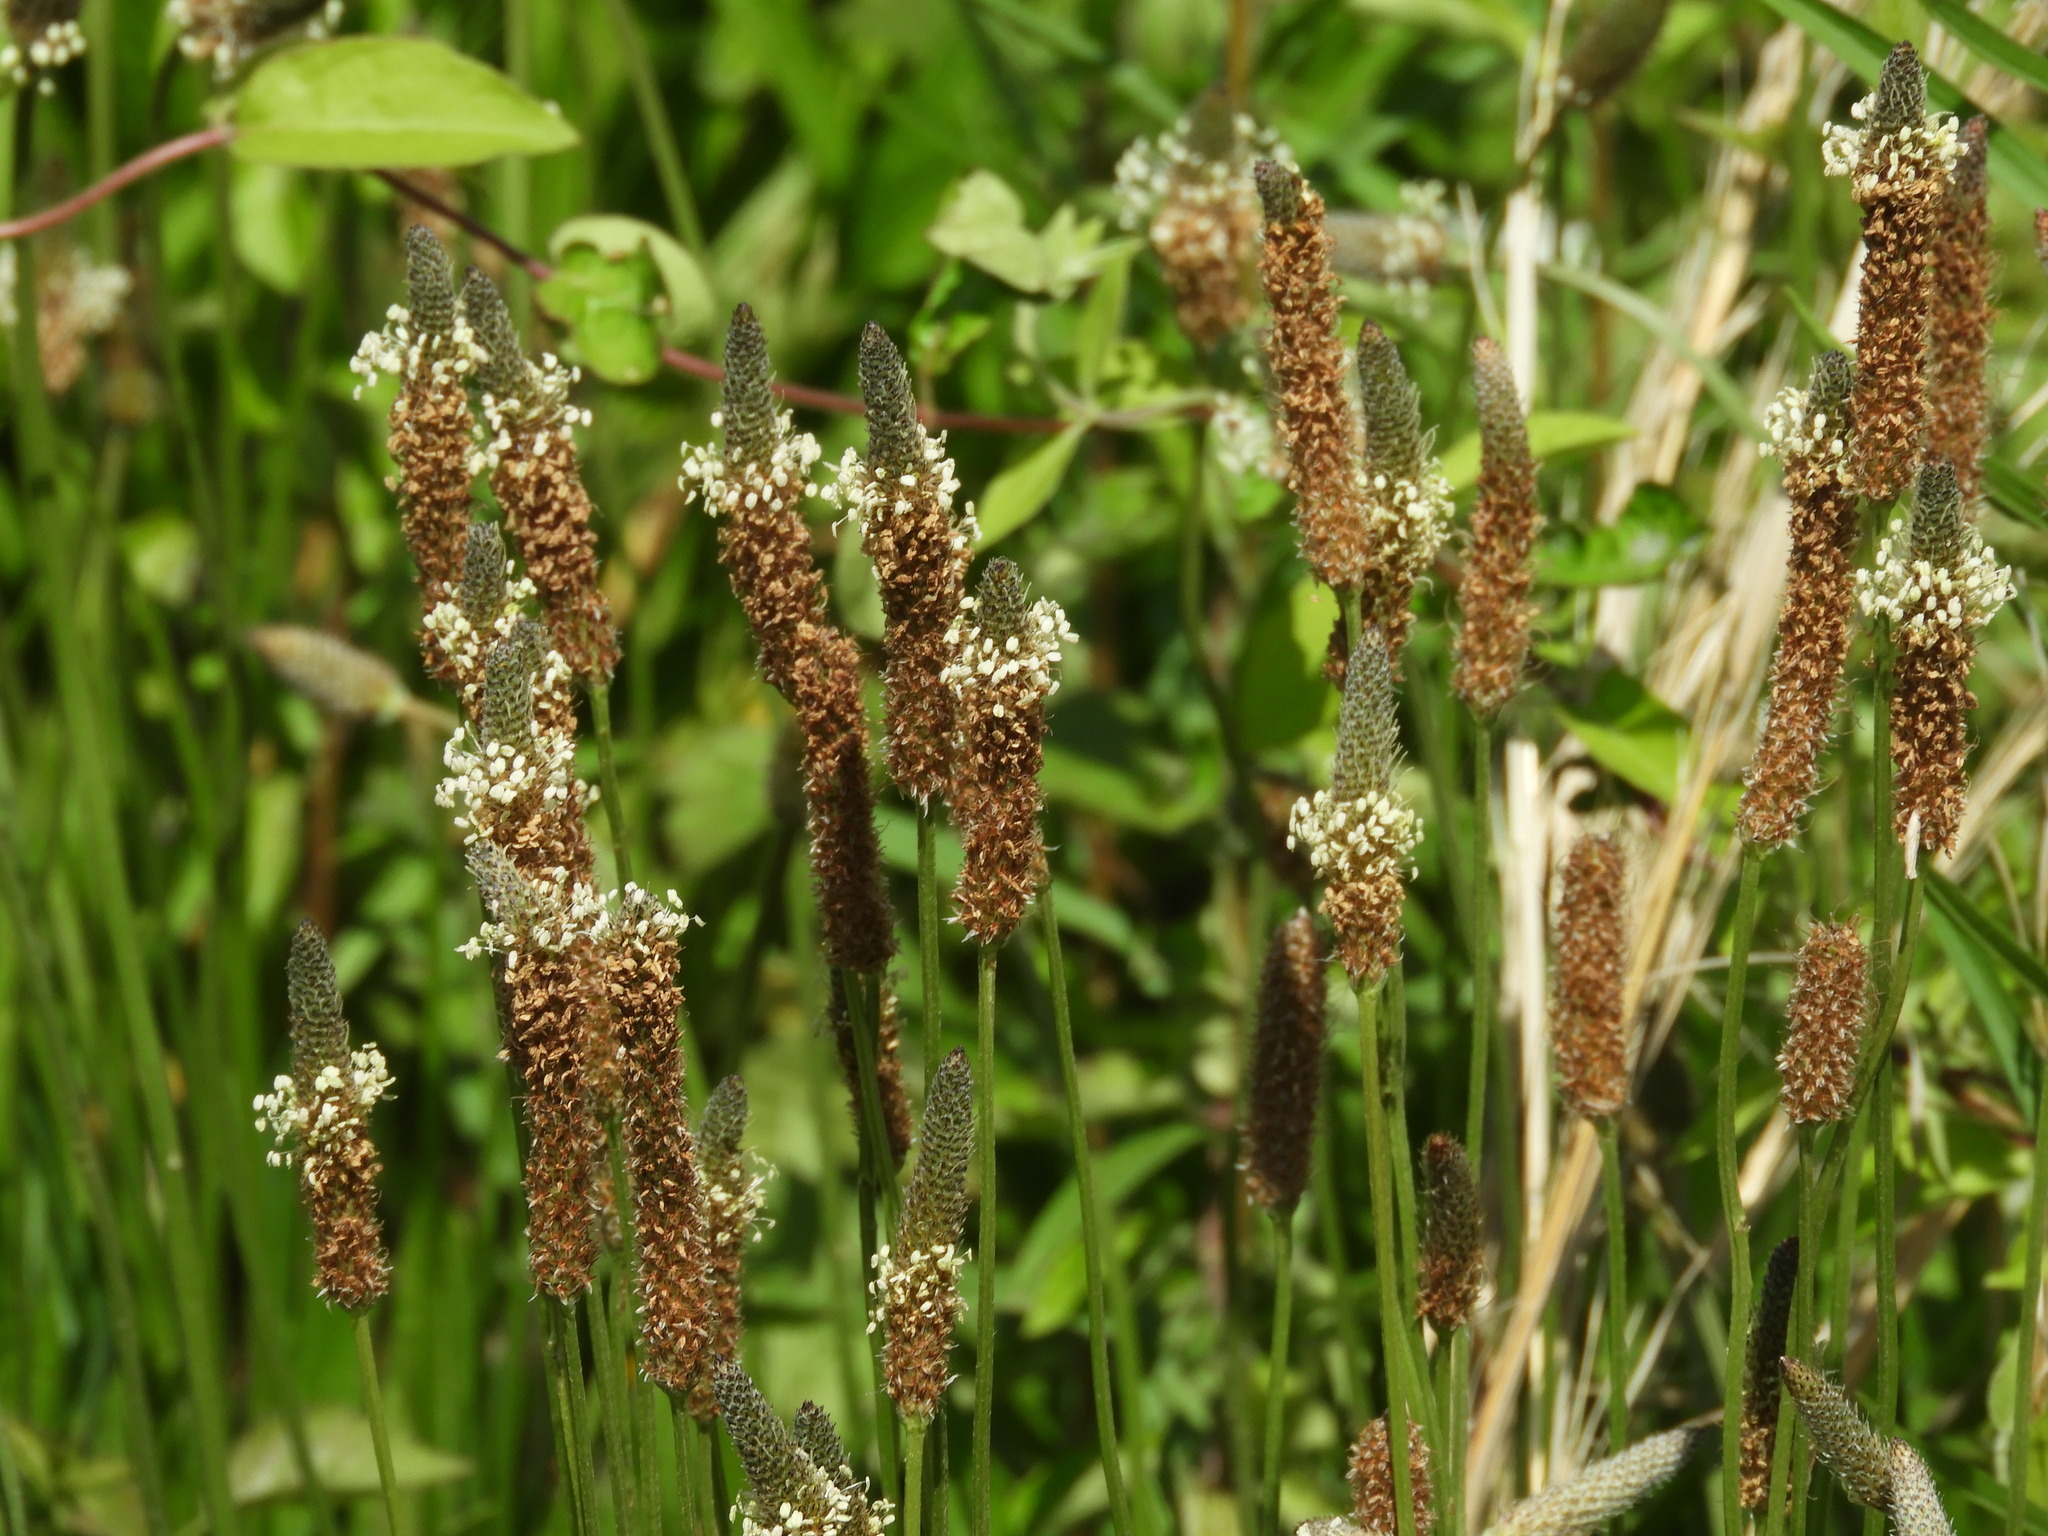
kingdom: Plantae
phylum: Tracheophyta
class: Magnoliopsida
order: Lamiales
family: Plantaginaceae
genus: Plantago
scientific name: Plantago lanceolata
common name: Ribwort plantain
